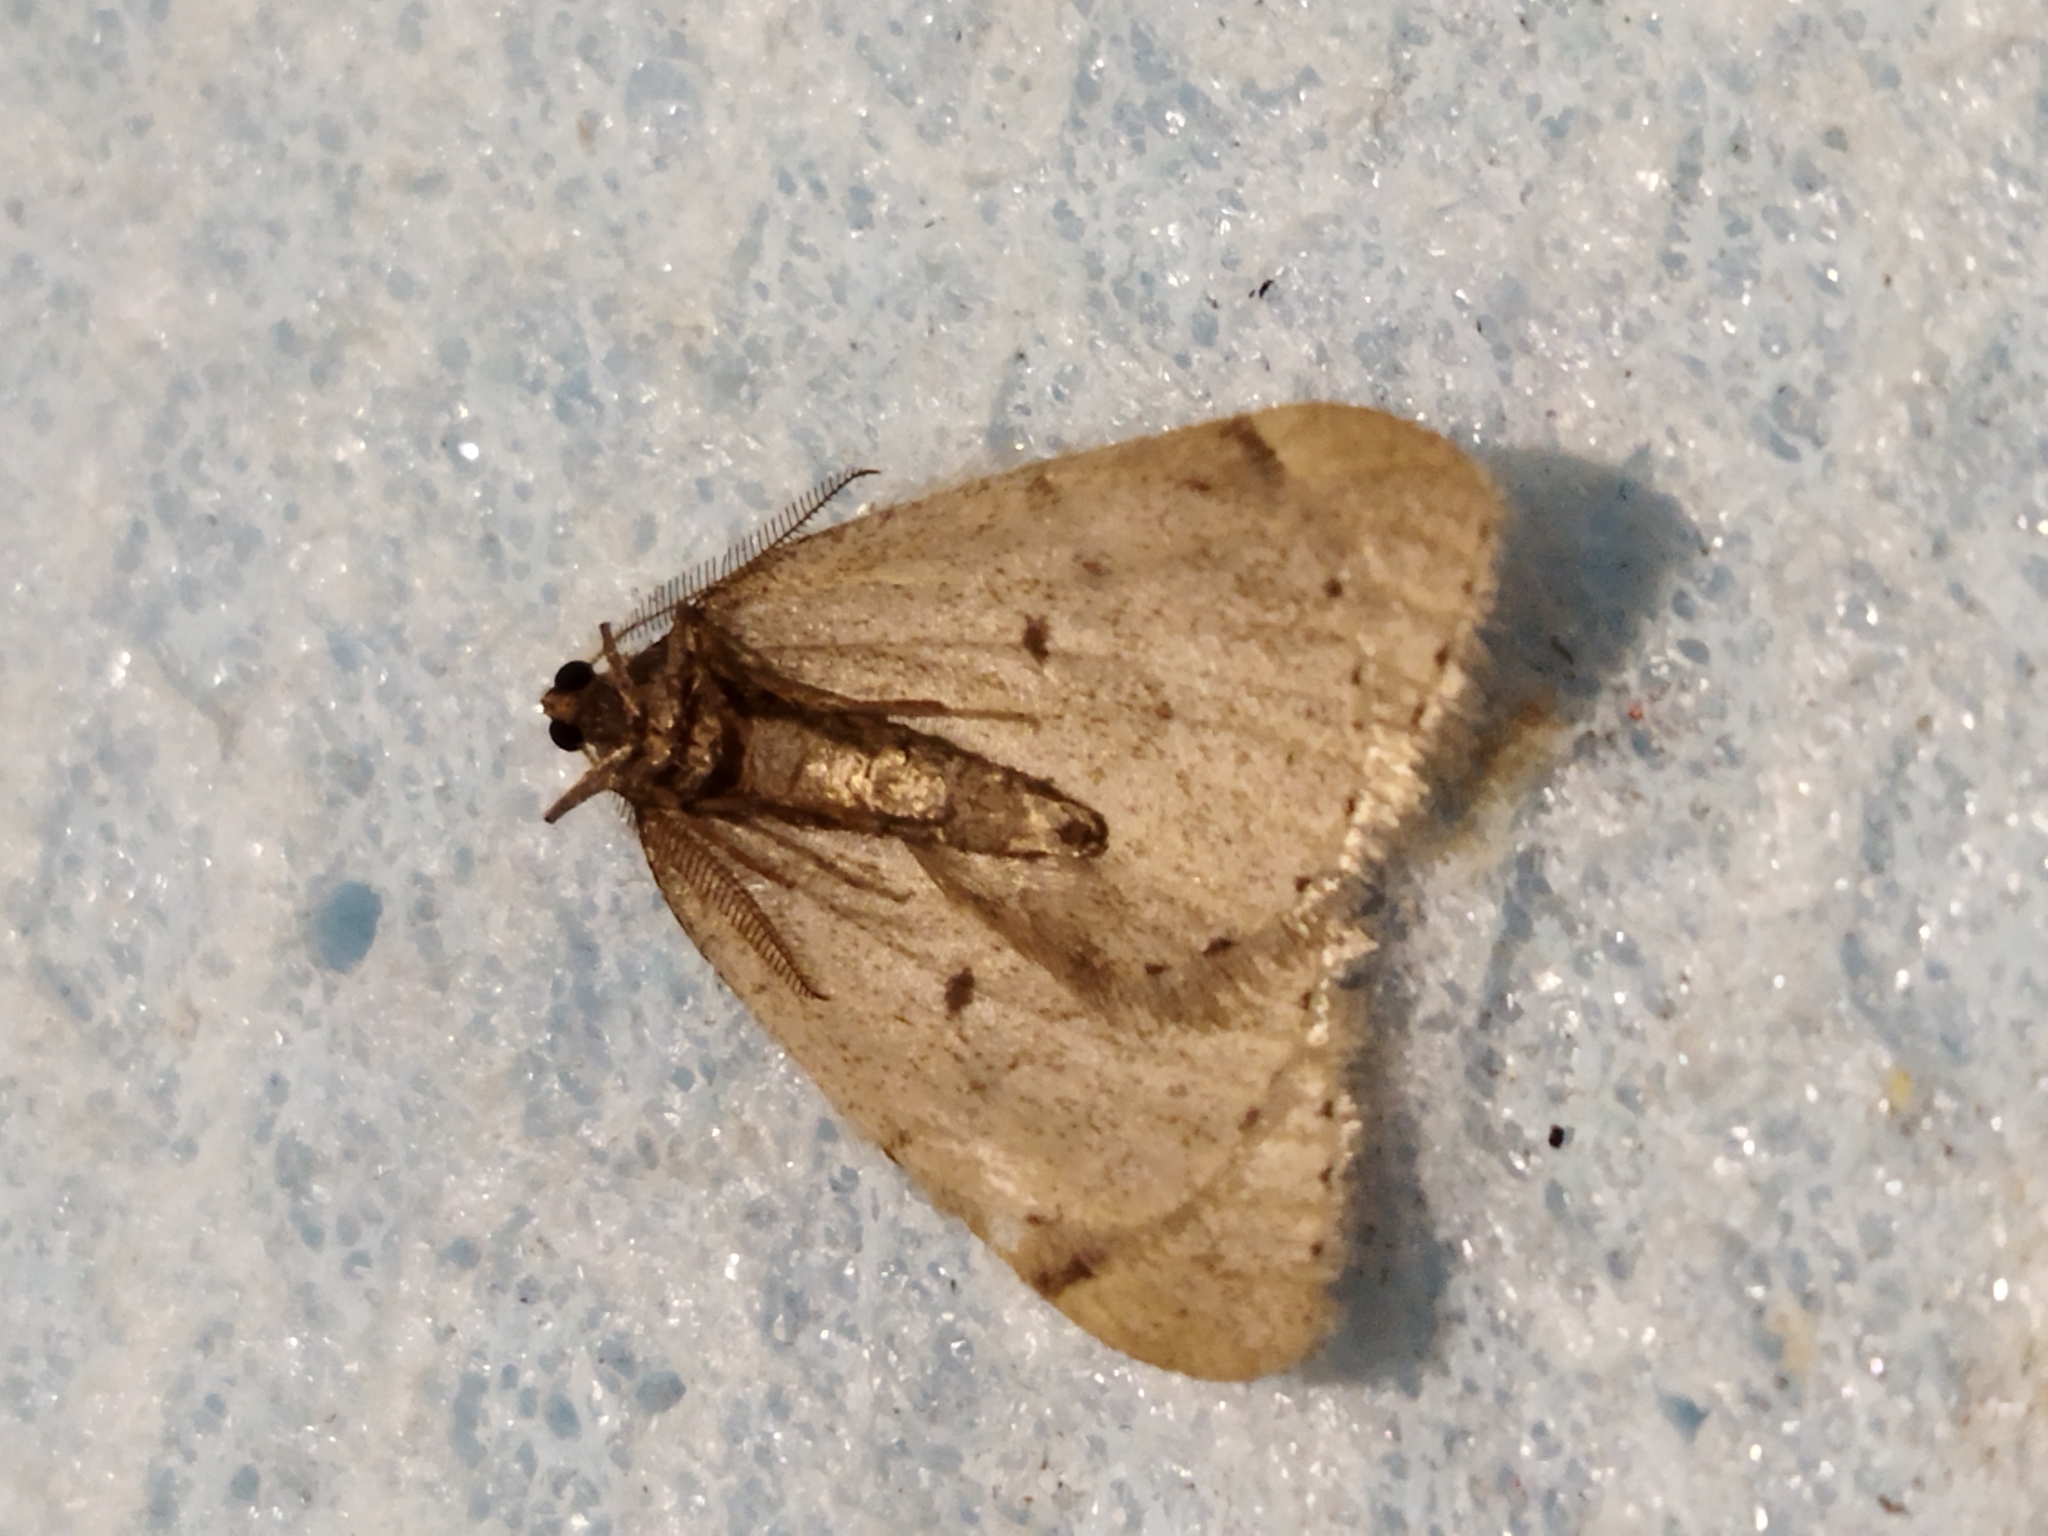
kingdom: Animalia
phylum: Arthropoda
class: Insecta
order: Lepidoptera
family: Geometridae
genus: Theria
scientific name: Theria rupicapraria
